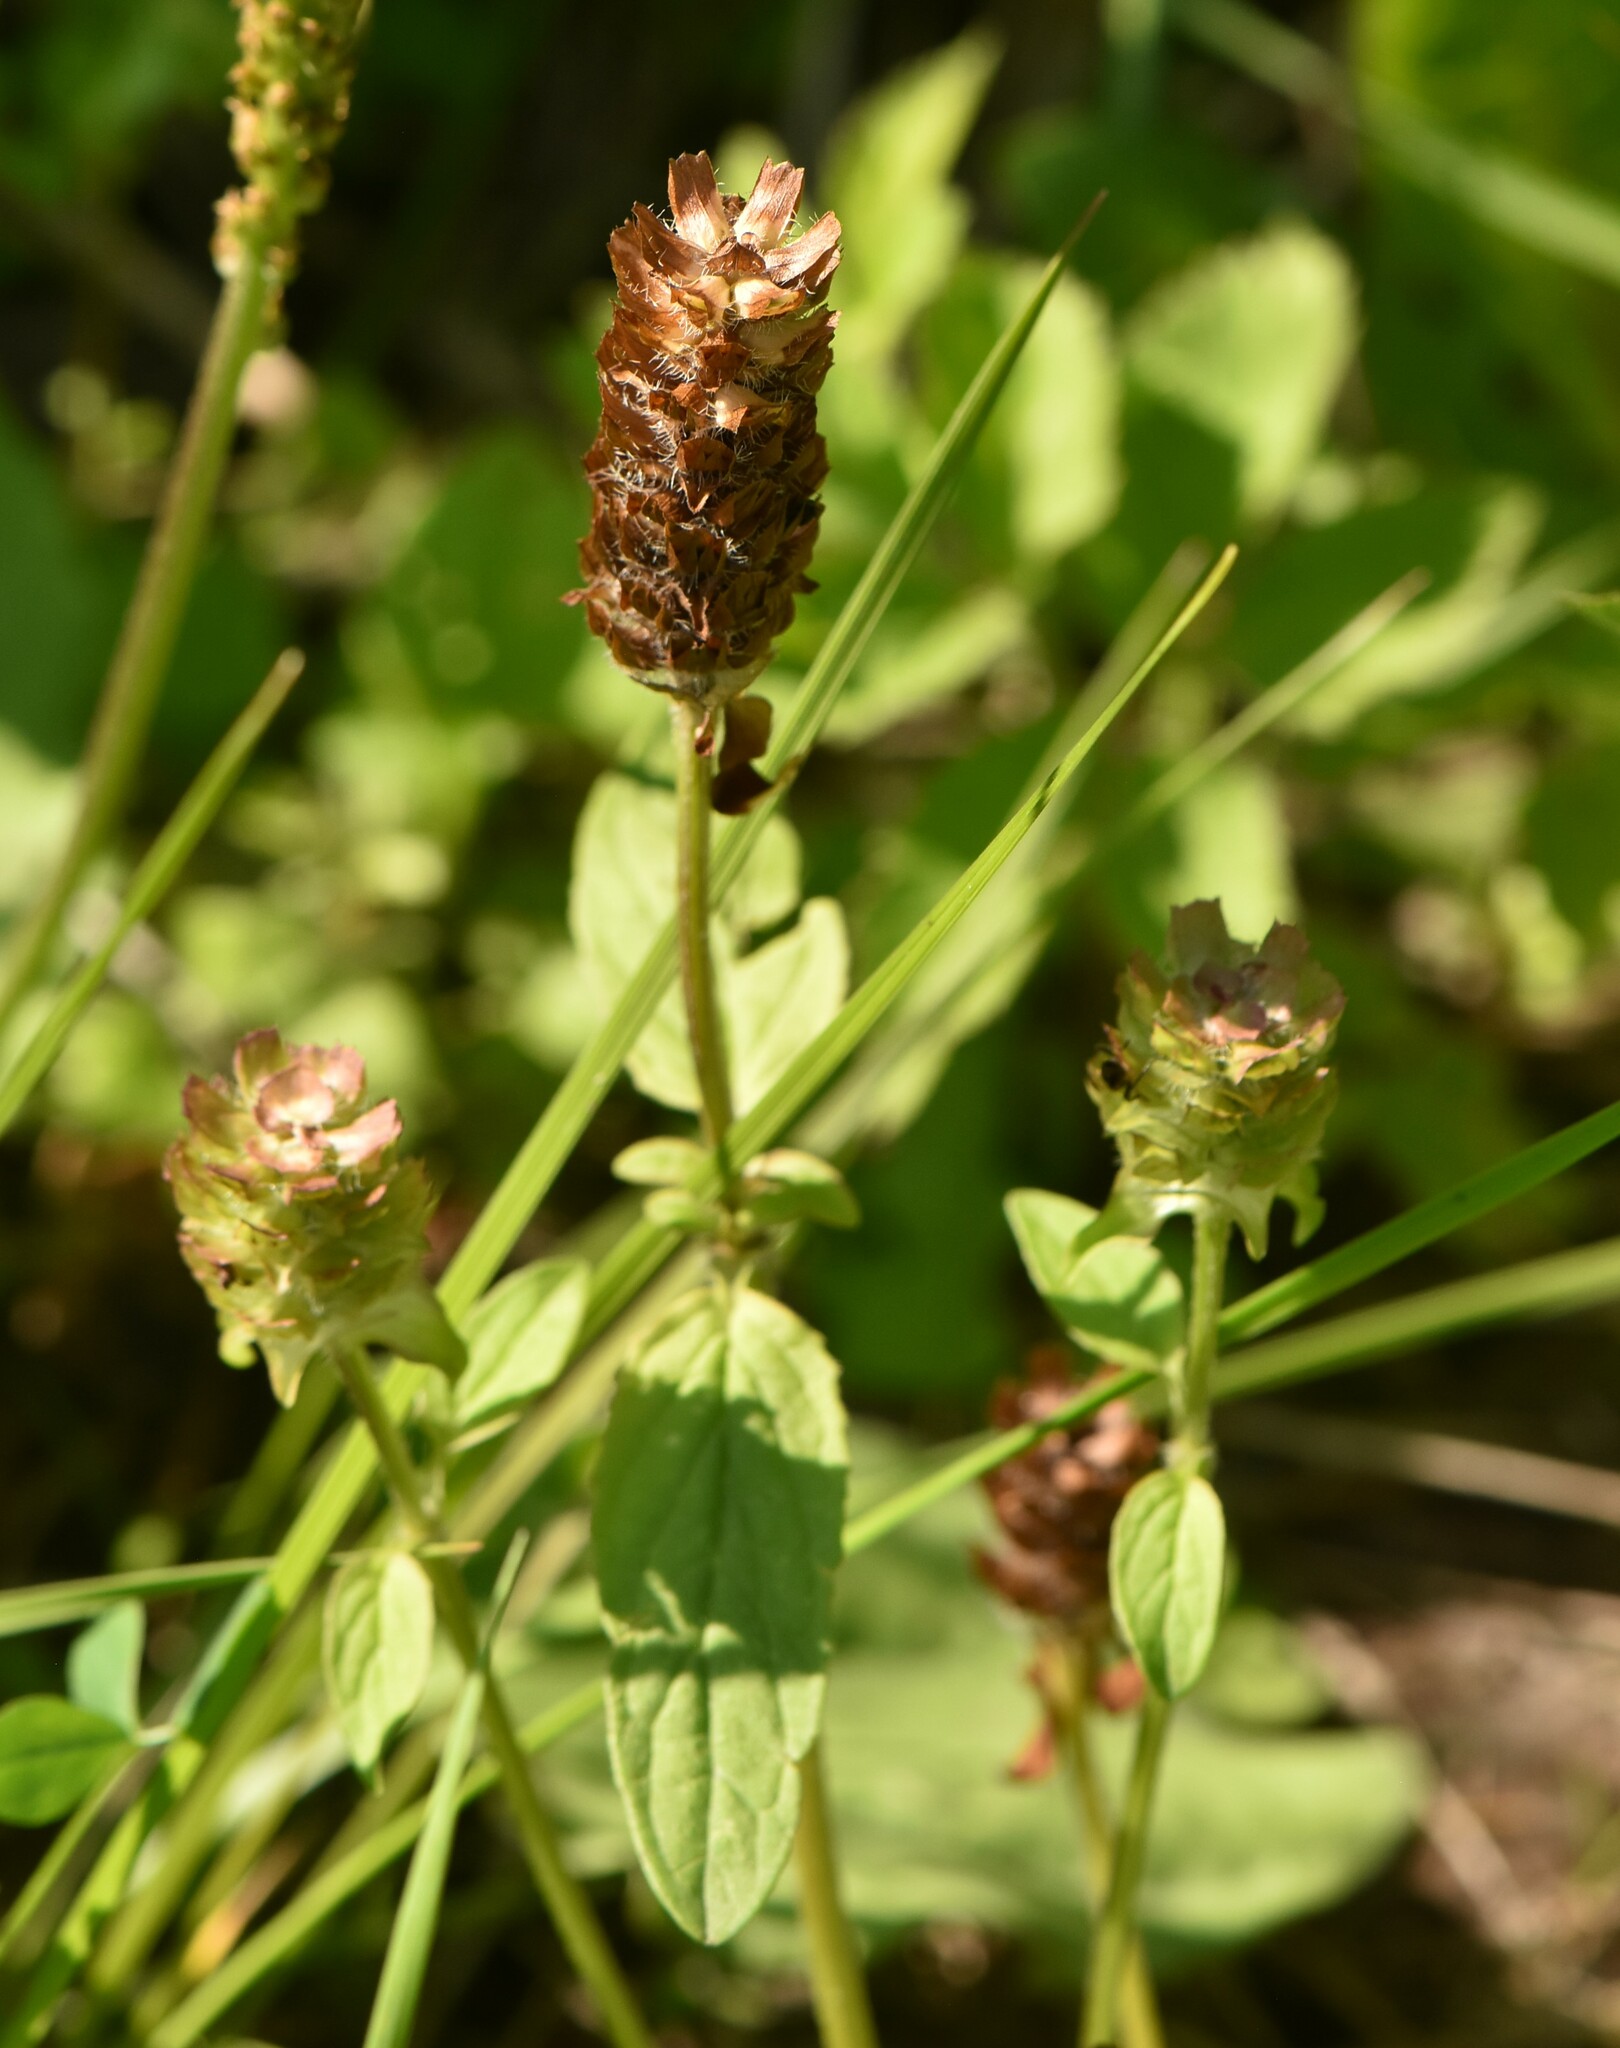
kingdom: Plantae
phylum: Tracheophyta
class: Magnoliopsida
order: Lamiales
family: Lamiaceae
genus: Prunella
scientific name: Prunella vulgaris
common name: Heal-all
